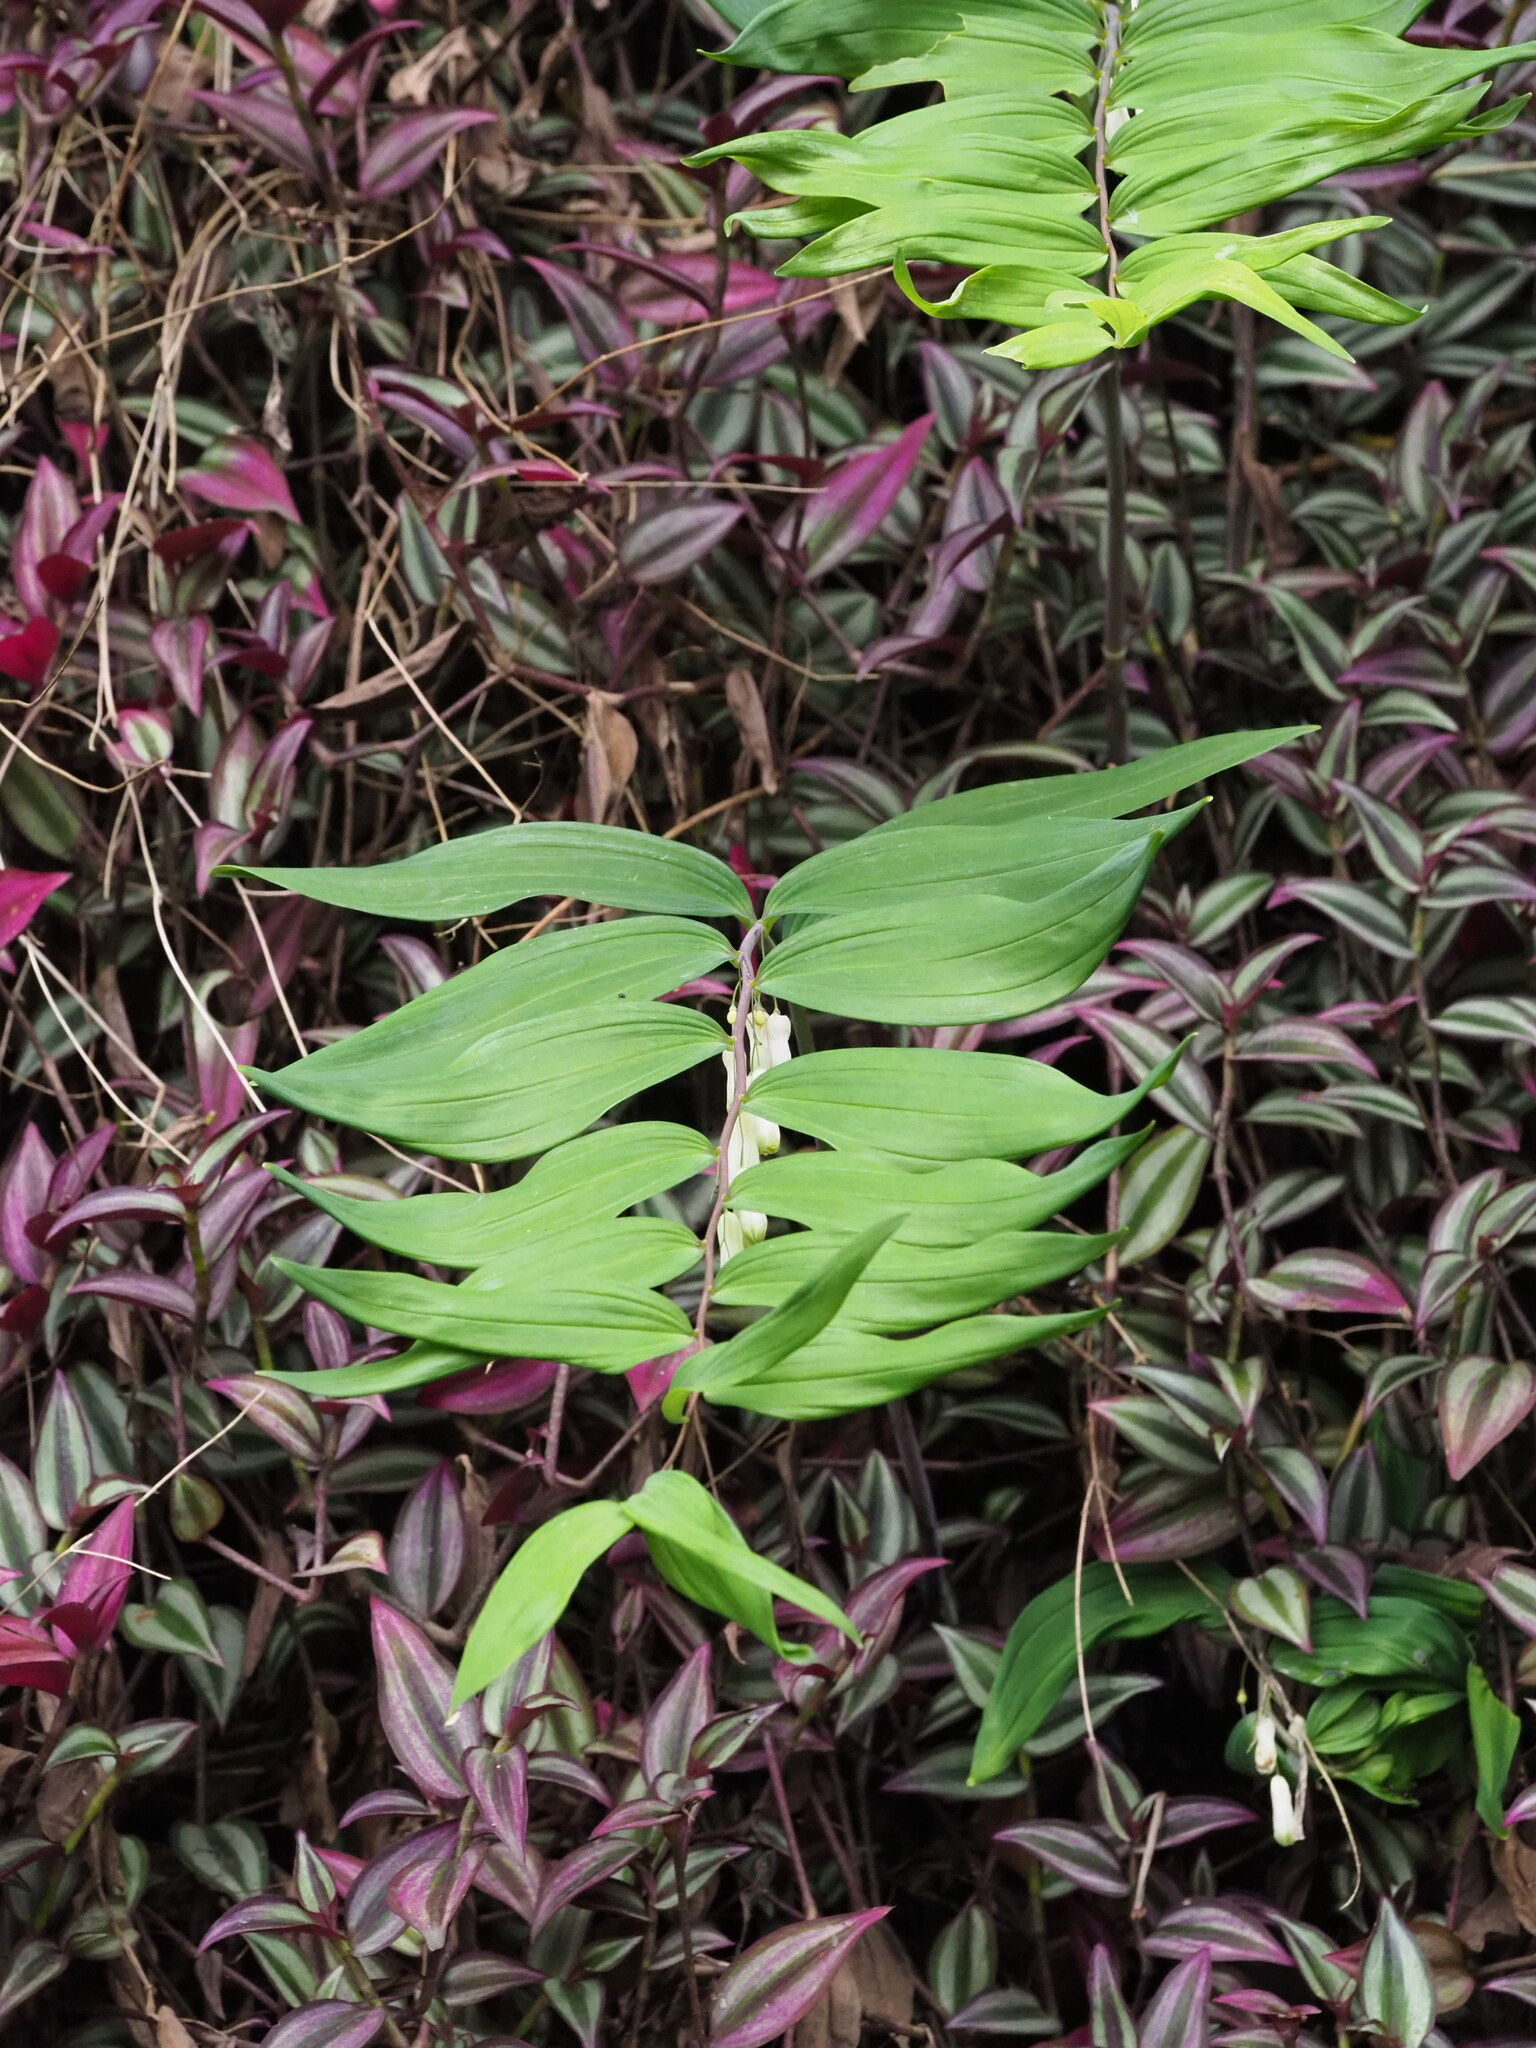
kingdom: Plantae
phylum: Tracheophyta
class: Liliopsida
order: Asparagales
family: Asparagaceae
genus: Polygonatum
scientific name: Polygonatum arisanense
